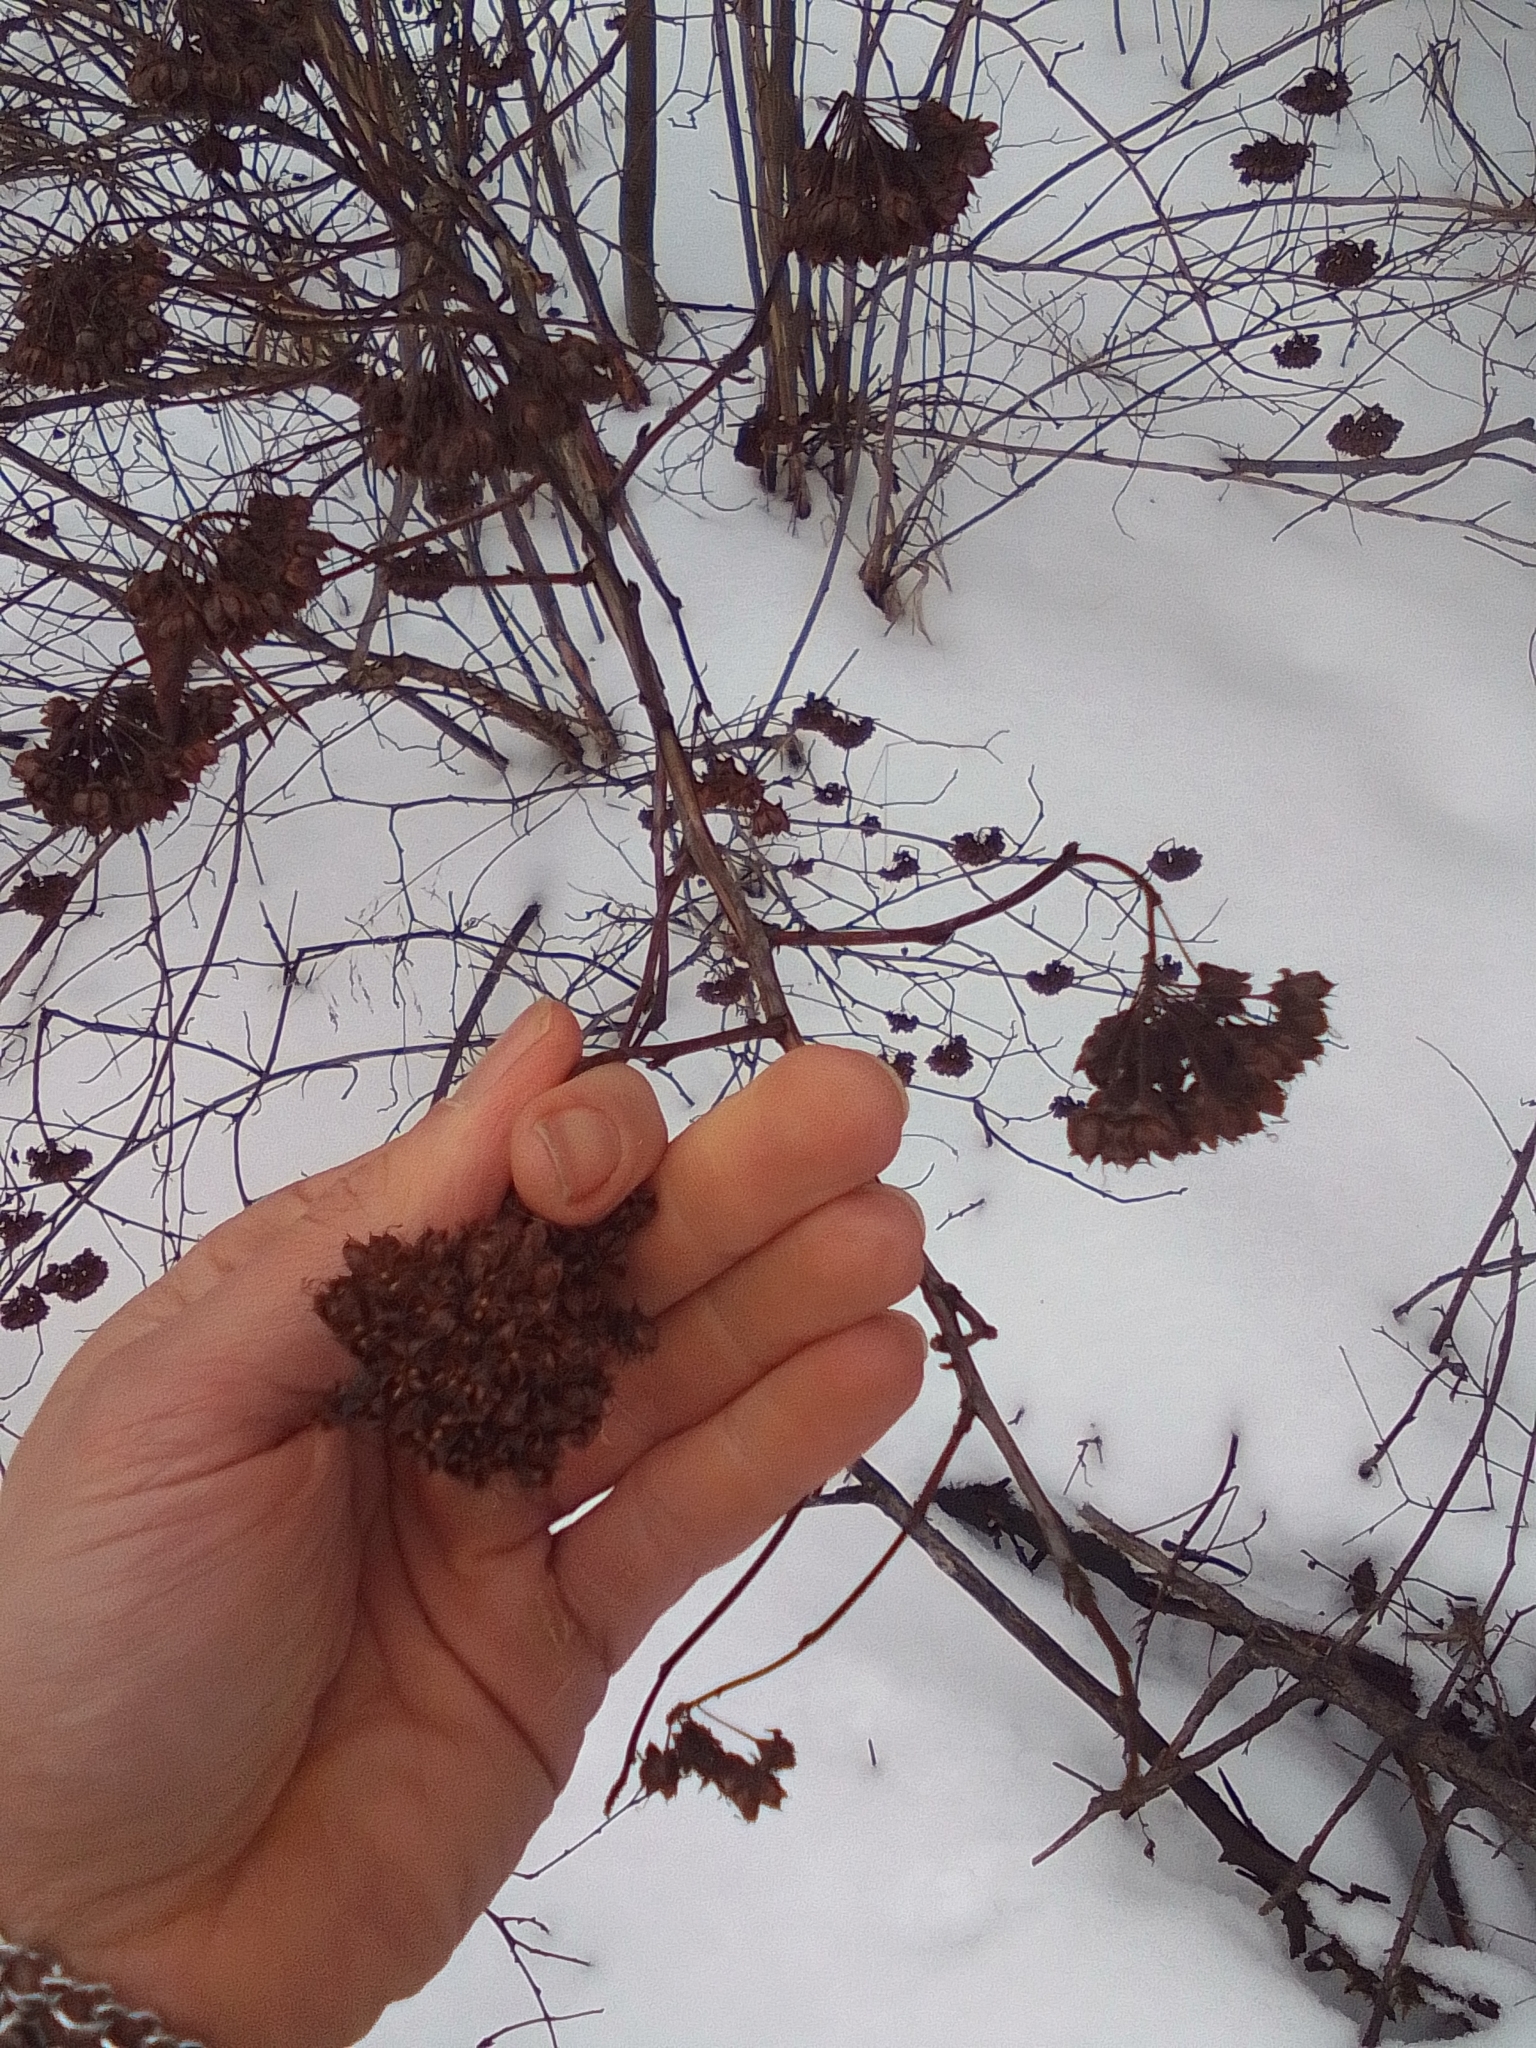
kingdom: Plantae
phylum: Tracheophyta
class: Magnoliopsida
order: Rosales
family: Rosaceae
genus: Physocarpus
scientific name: Physocarpus opulifolius
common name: Ninebark
